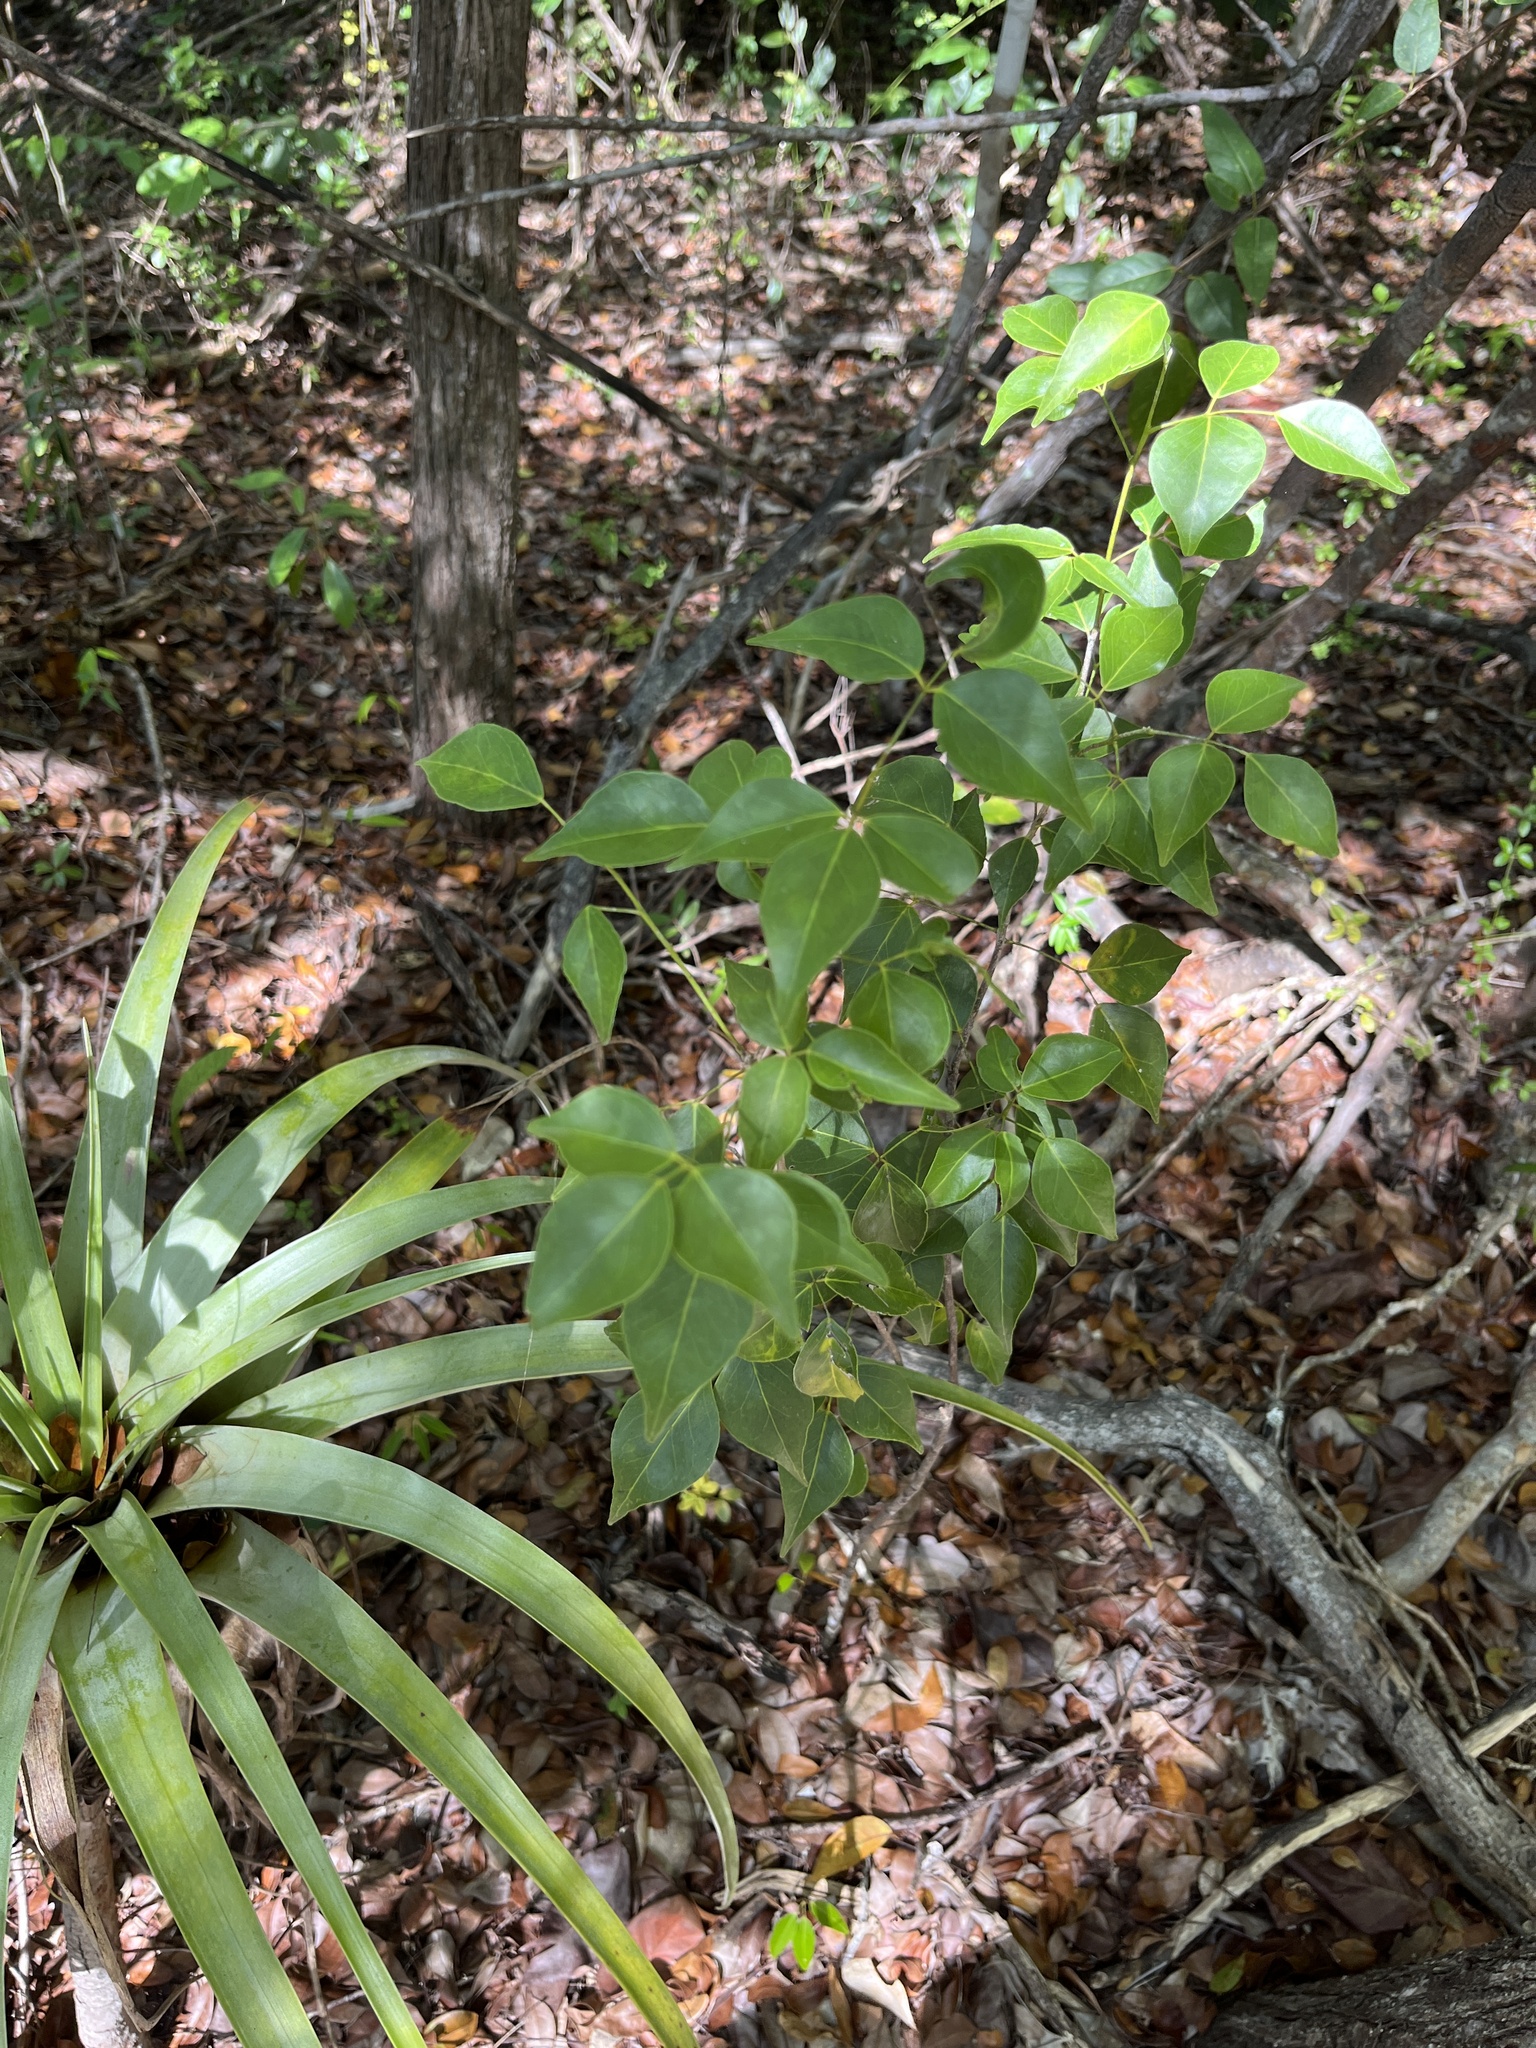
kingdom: Plantae
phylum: Tracheophyta
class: Magnoliopsida
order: Sapindales
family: Rutaceae
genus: Amyris
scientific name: Amyris elemifera
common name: Sea amyris
